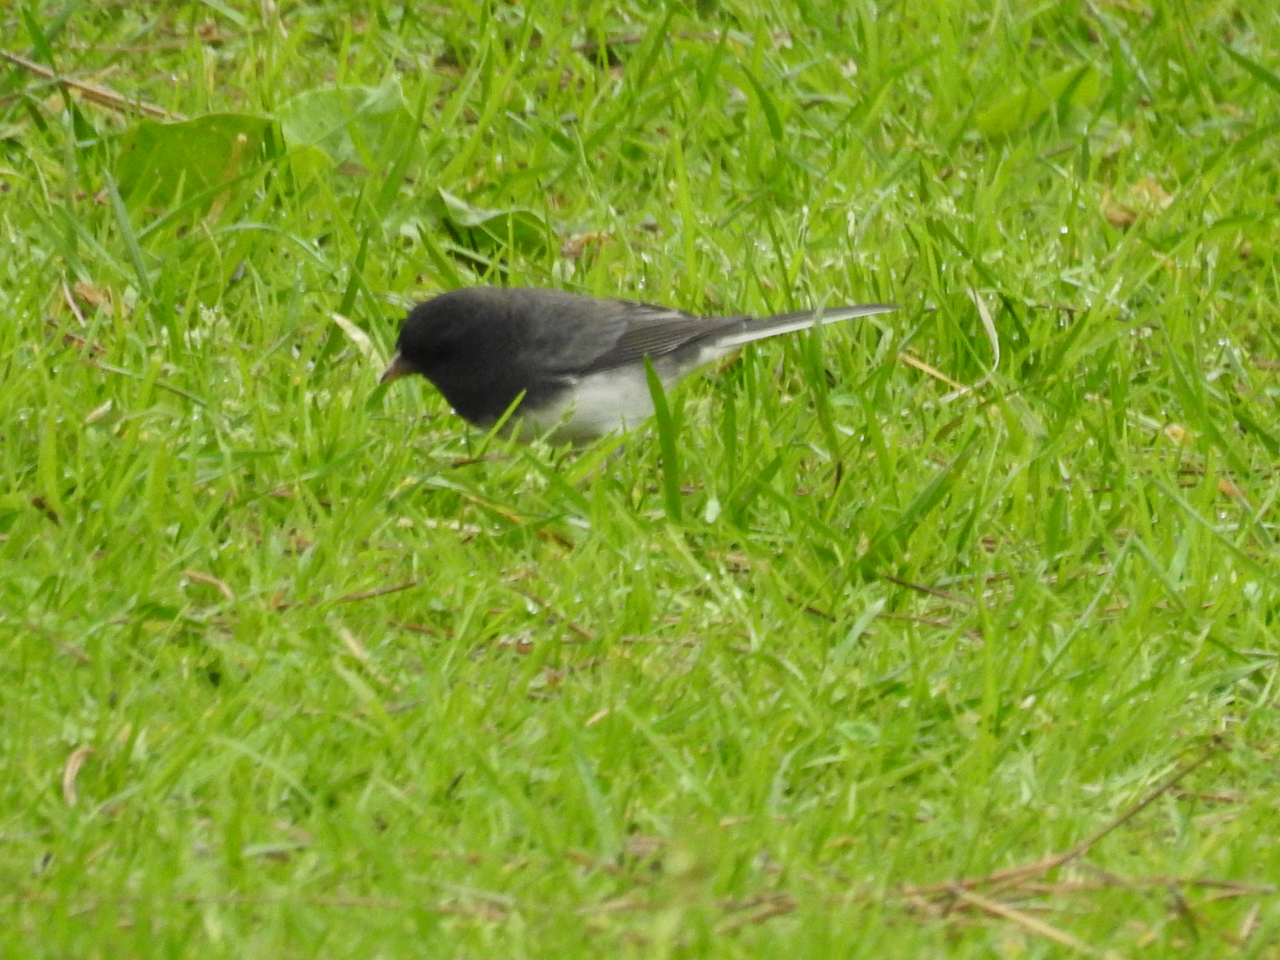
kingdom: Animalia
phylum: Chordata
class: Aves
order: Passeriformes
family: Passerellidae
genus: Junco
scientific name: Junco hyemalis
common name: Dark-eyed junco
